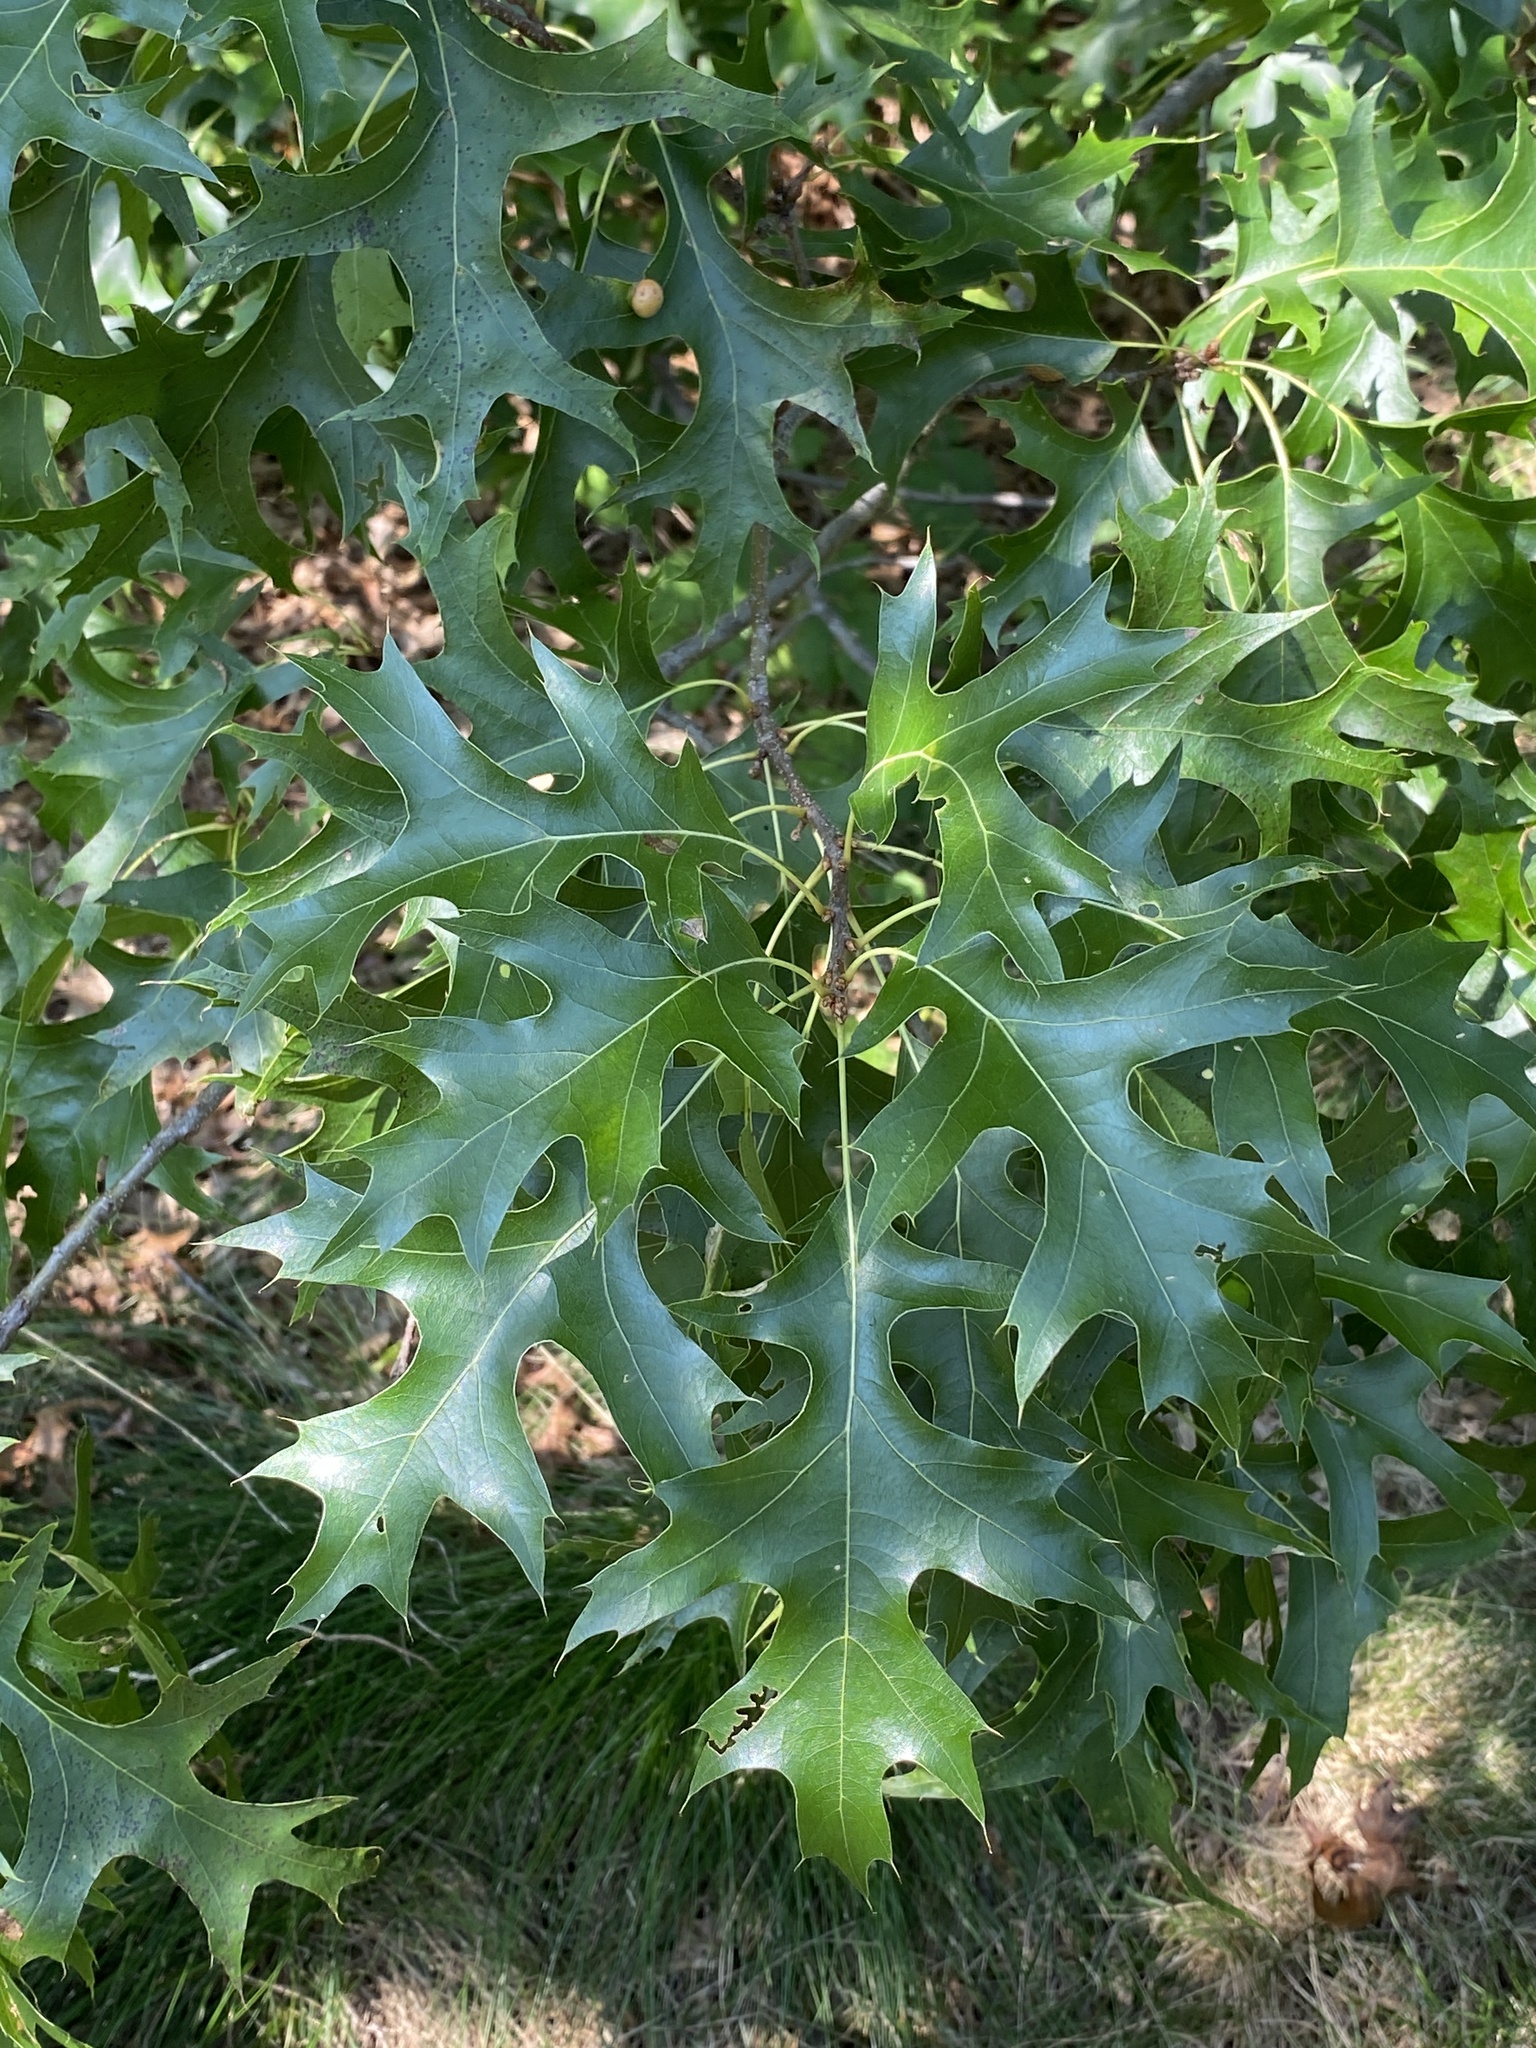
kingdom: Plantae
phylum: Tracheophyta
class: Magnoliopsida
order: Fagales
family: Fagaceae
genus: Quercus
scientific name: Quercus palustris
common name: Pin oak
